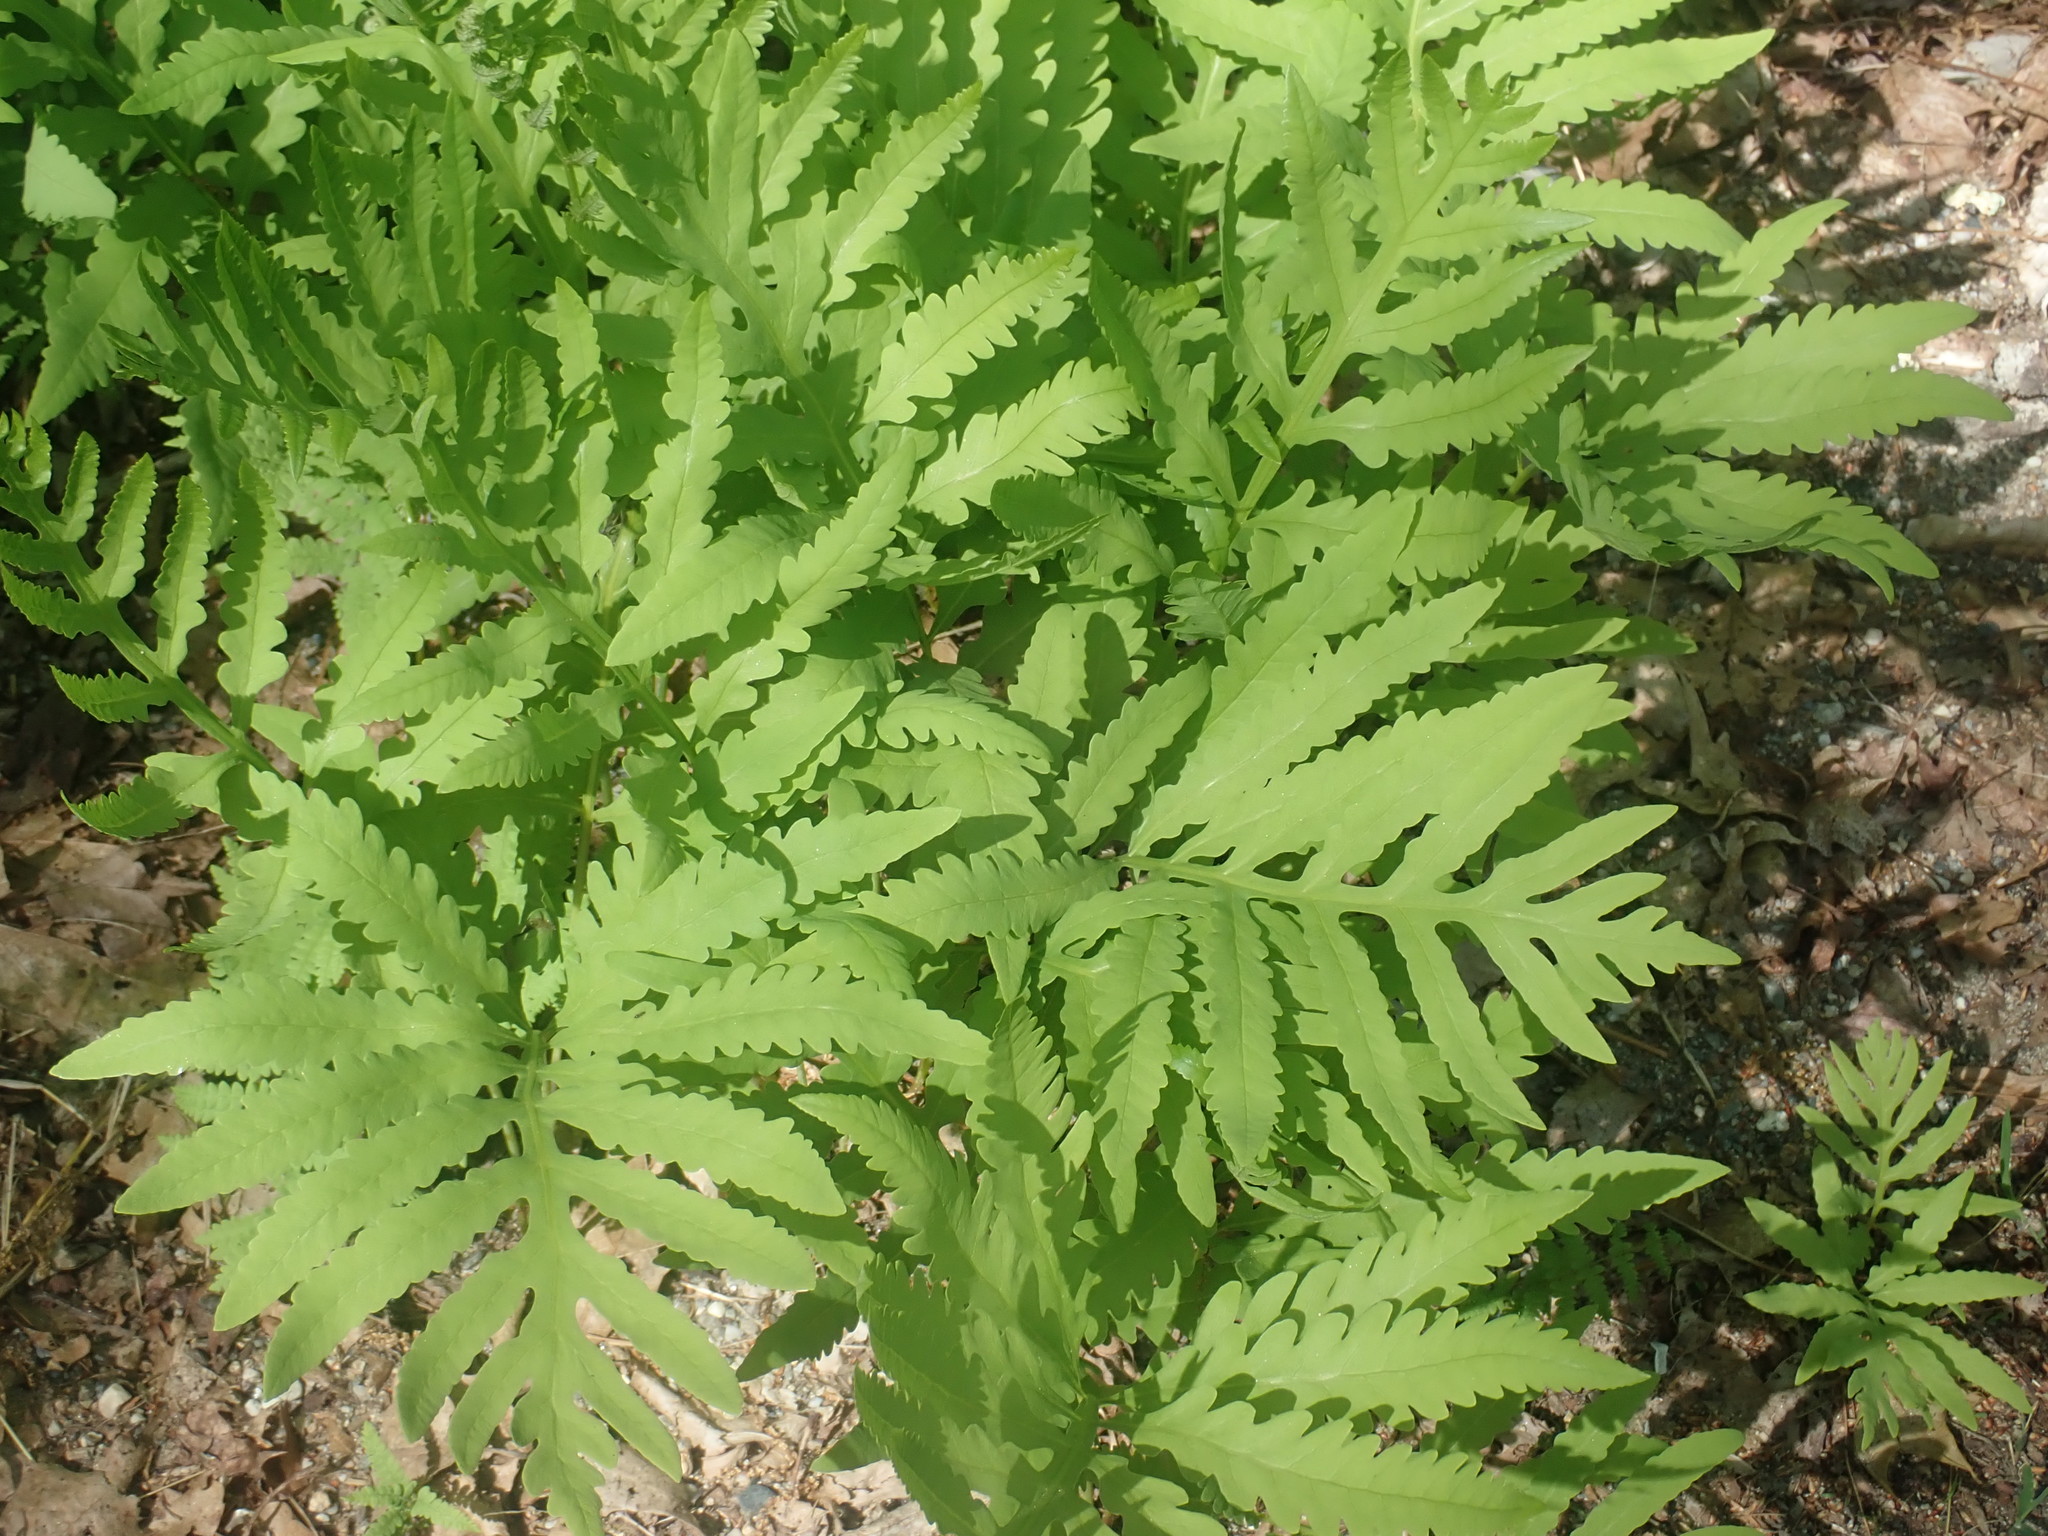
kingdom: Plantae
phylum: Tracheophyta
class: Polypodiopsida
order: Polypodiales
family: Onocleaceae
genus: Onoclea
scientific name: Onoclea sensibilis
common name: Sensitive fern
